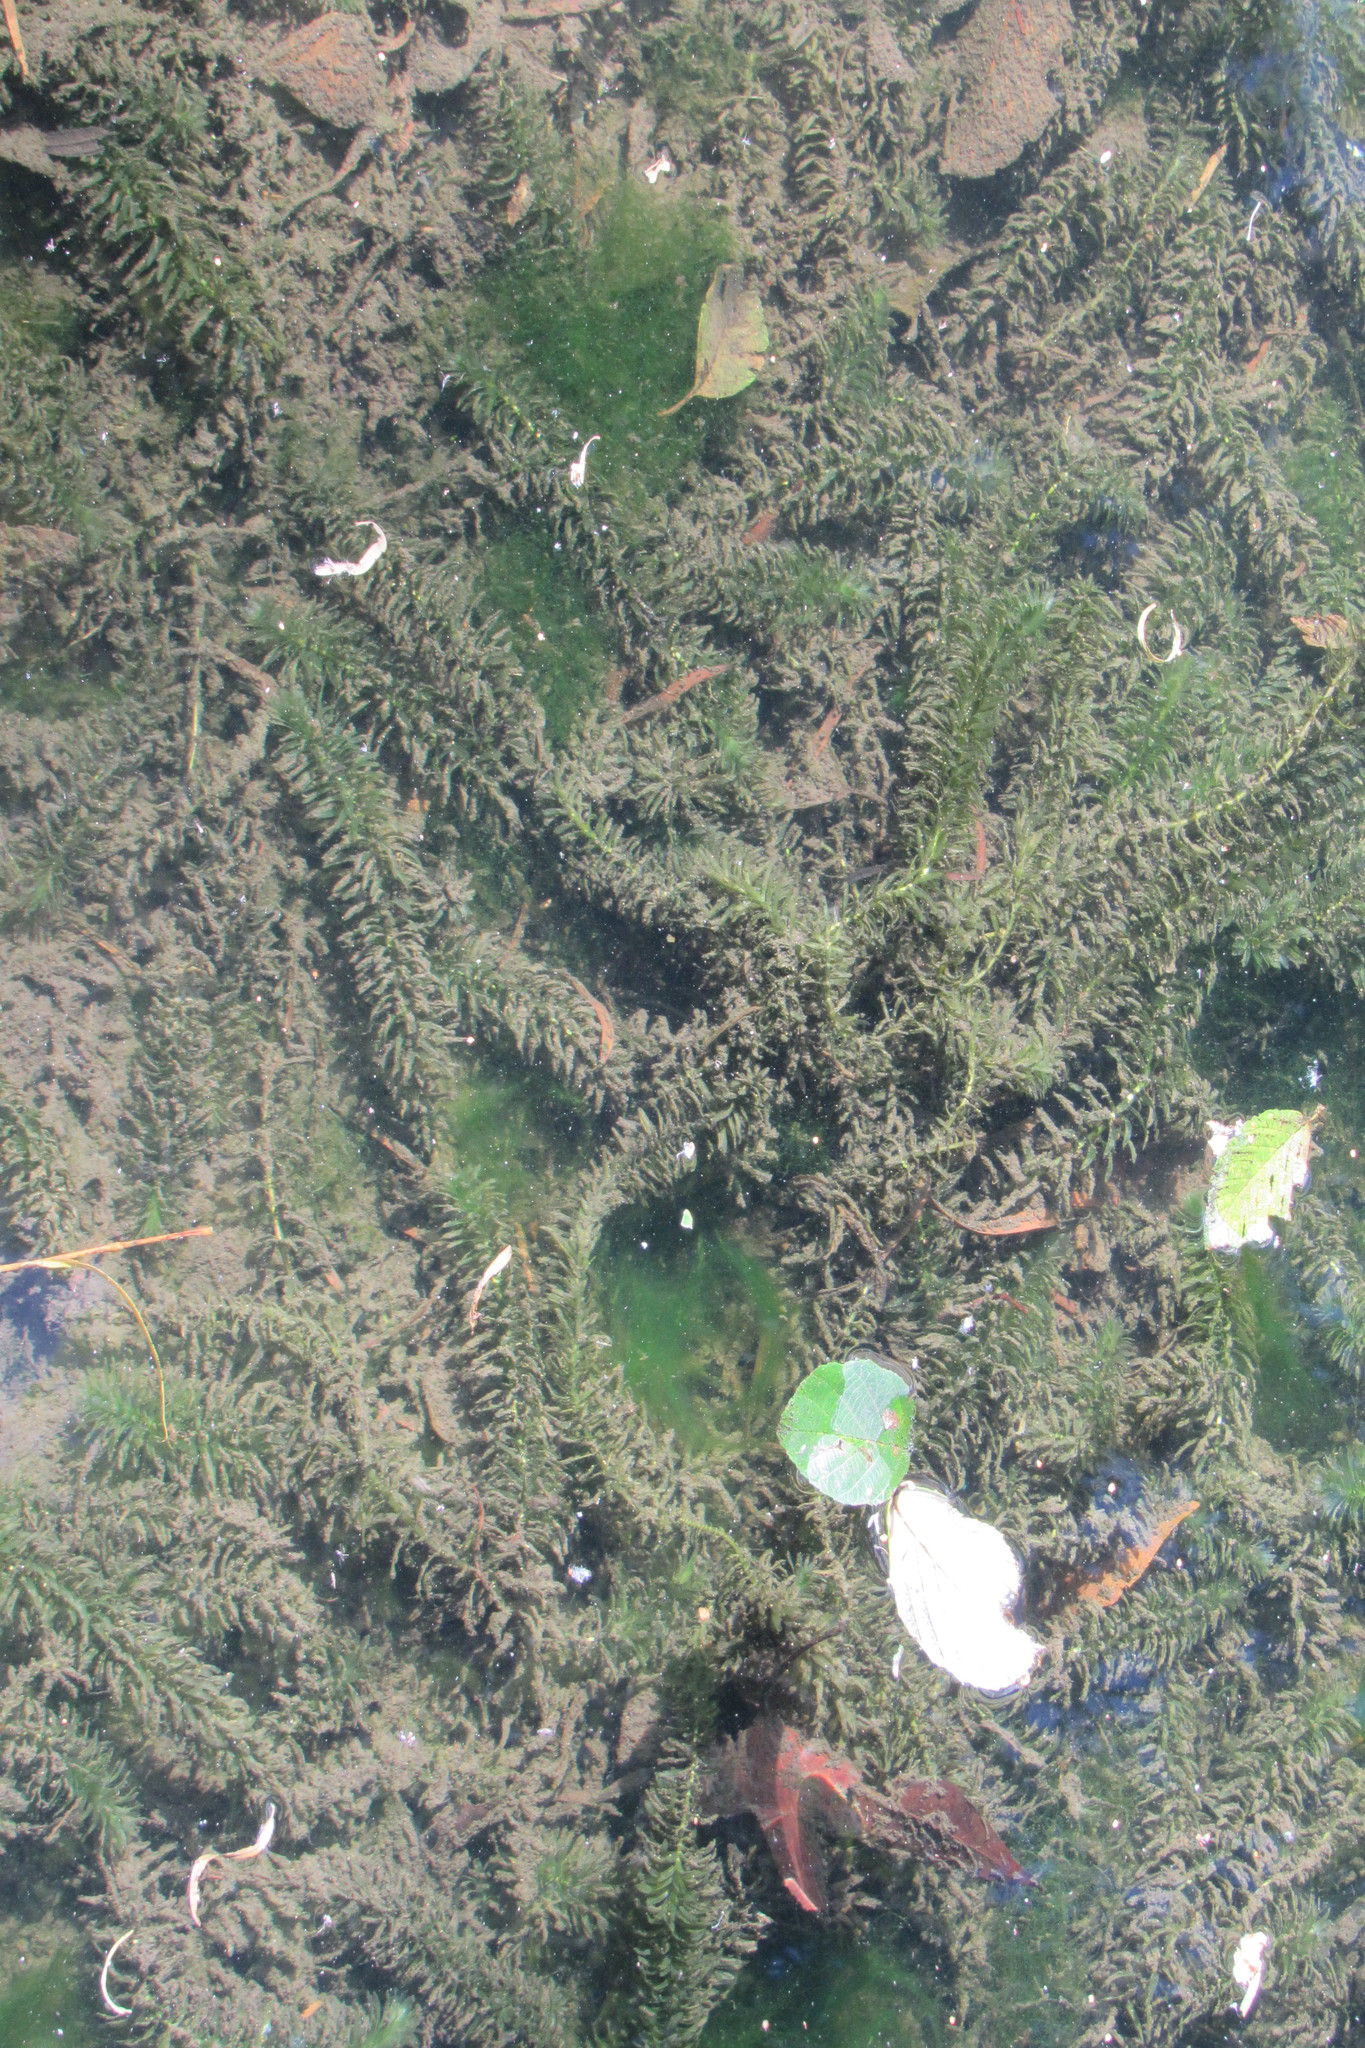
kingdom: Plantae
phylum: Tracheophyta
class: Liliopsida
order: Alismatales
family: Hydrocharitaceae
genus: Elodea
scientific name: Elodea densa
